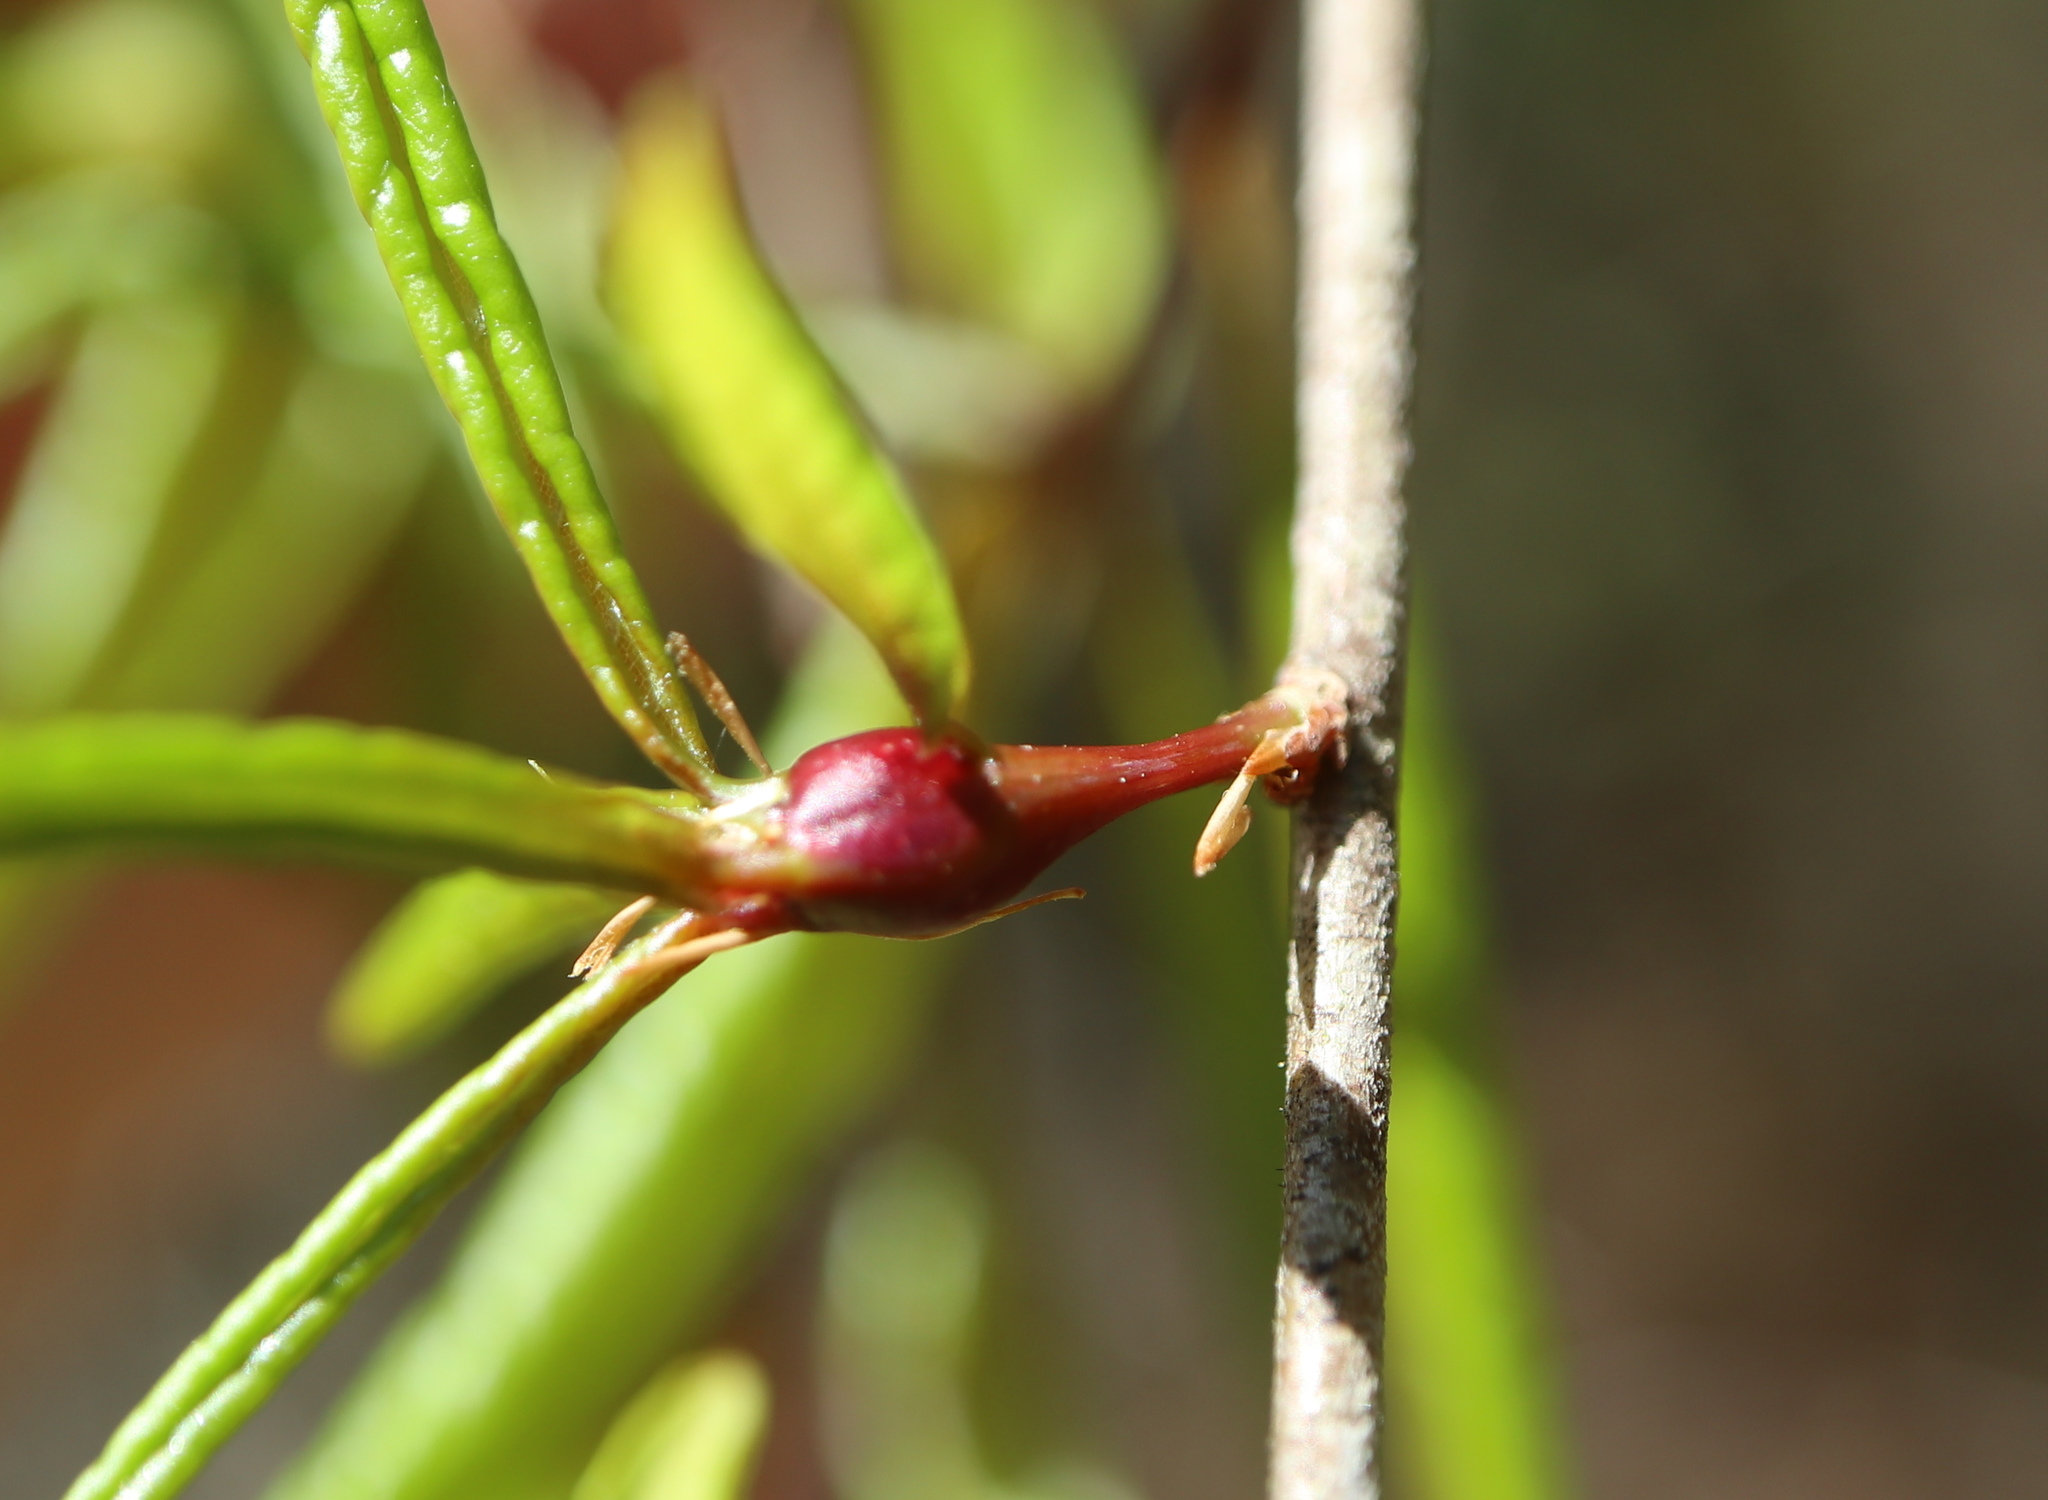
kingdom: Animalia
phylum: Arthropoda
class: Insecta
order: Hymenoptera
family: Cynipidae
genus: Zapatella
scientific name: Zapatella quercusphellos
